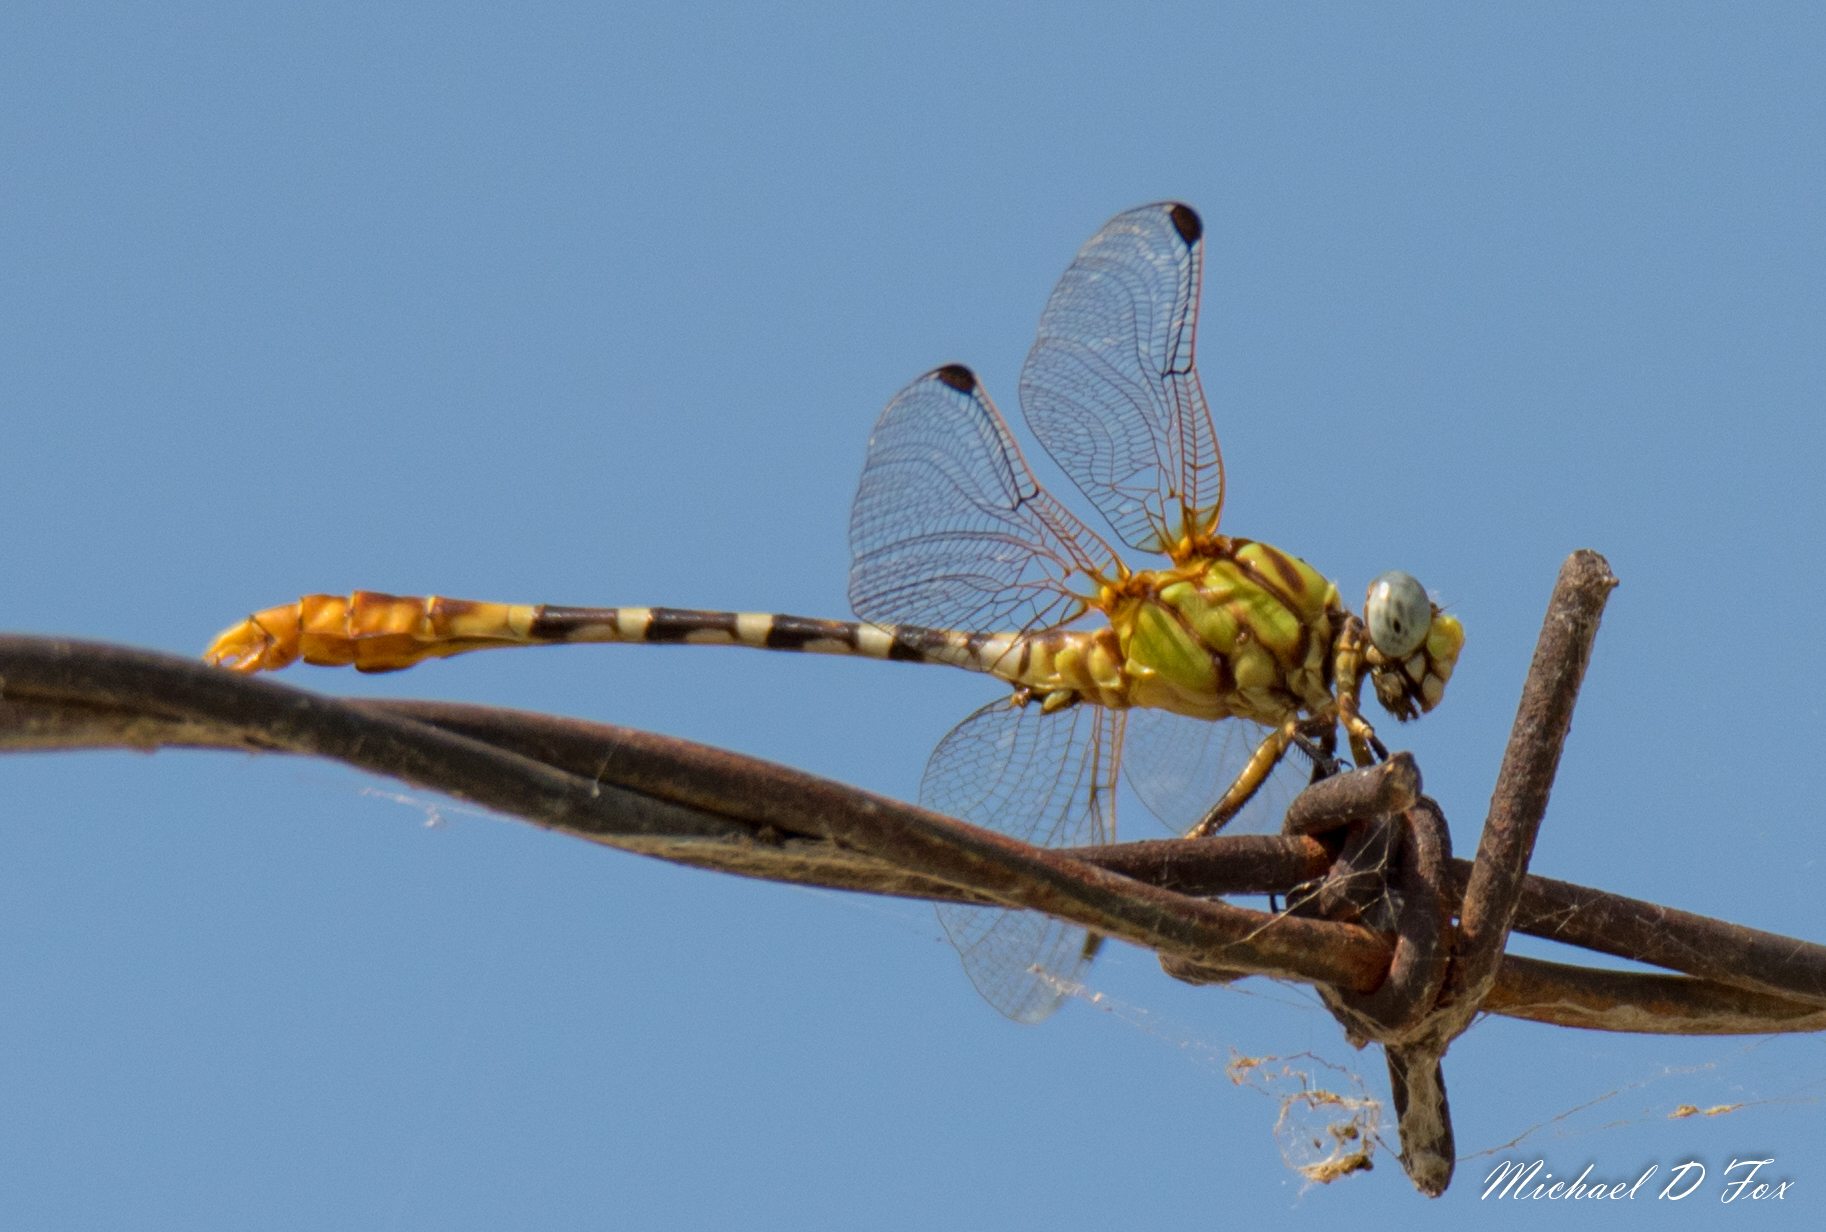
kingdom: Animalia
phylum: Arthropoda
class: Insecta
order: Odonata
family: Gomphidae
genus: Erpetogomphus
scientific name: Erpetogomphus designatus
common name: Eastern ringtail
